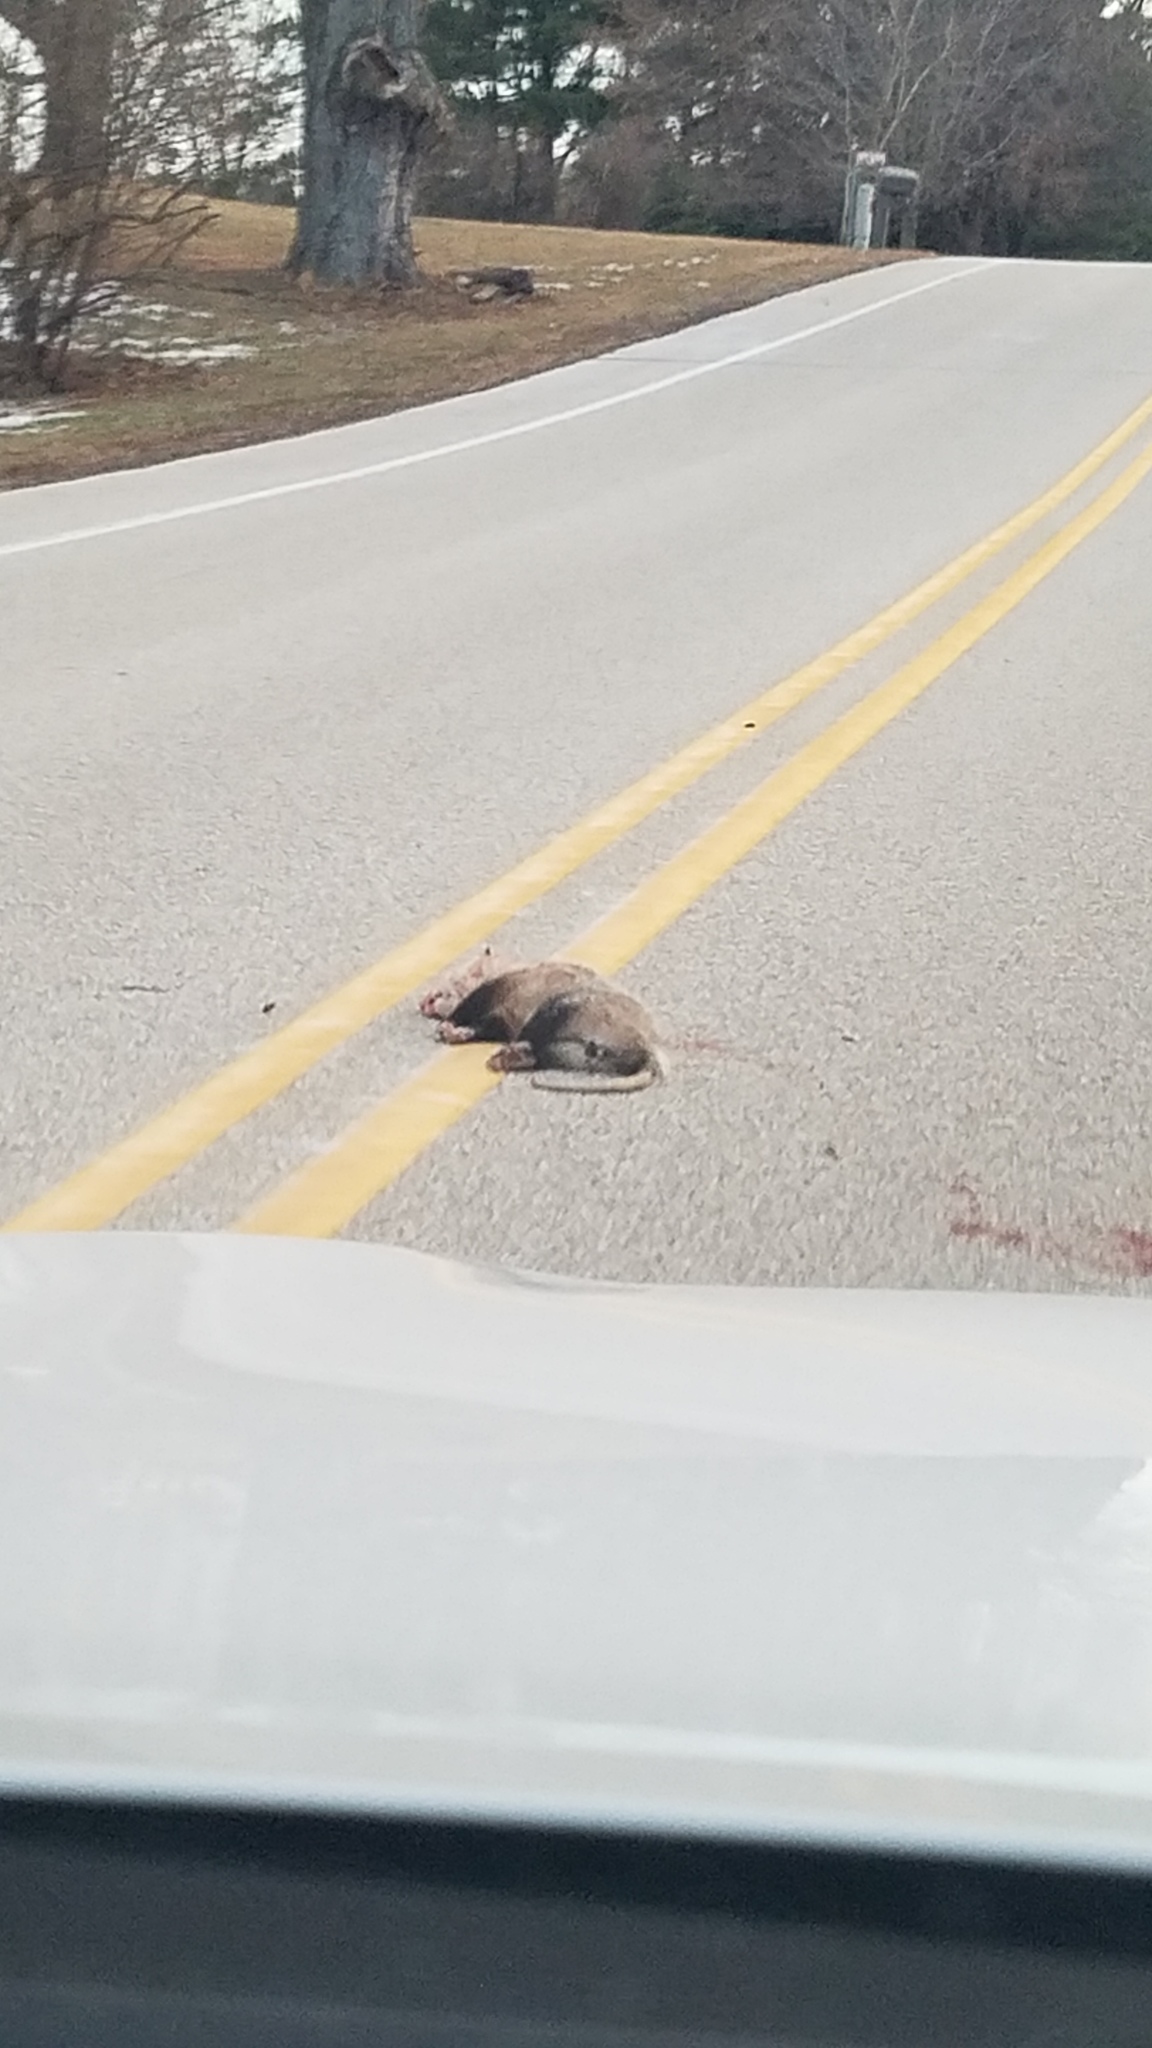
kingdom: Animalia
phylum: Chordata
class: Mammalia
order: Didelphimorphia
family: Didelphidae
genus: Didelphis
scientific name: Didelphis virginiana
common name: Virginia opossum
